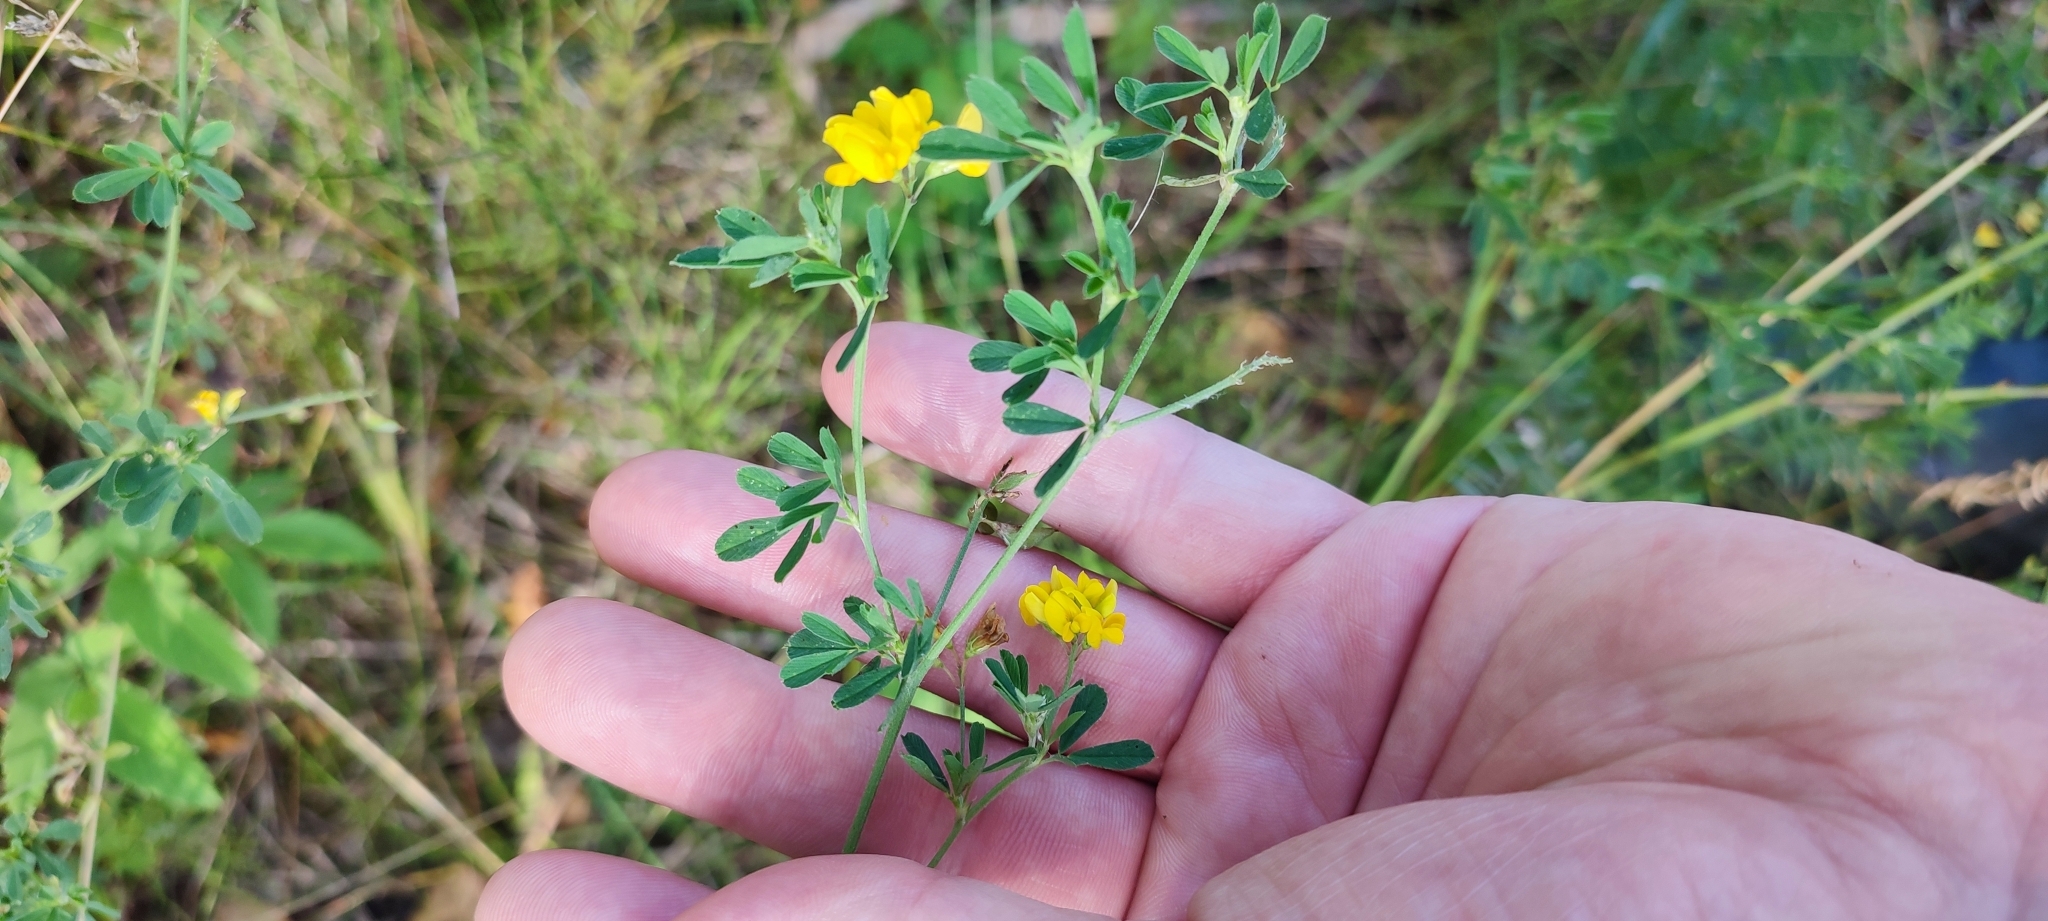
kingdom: Plantae
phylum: Tracheophyta
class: Magnoliopsida
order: Fabales
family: Fabaceae
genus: Medicago
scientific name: Medicago falcata
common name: Sickle medick
